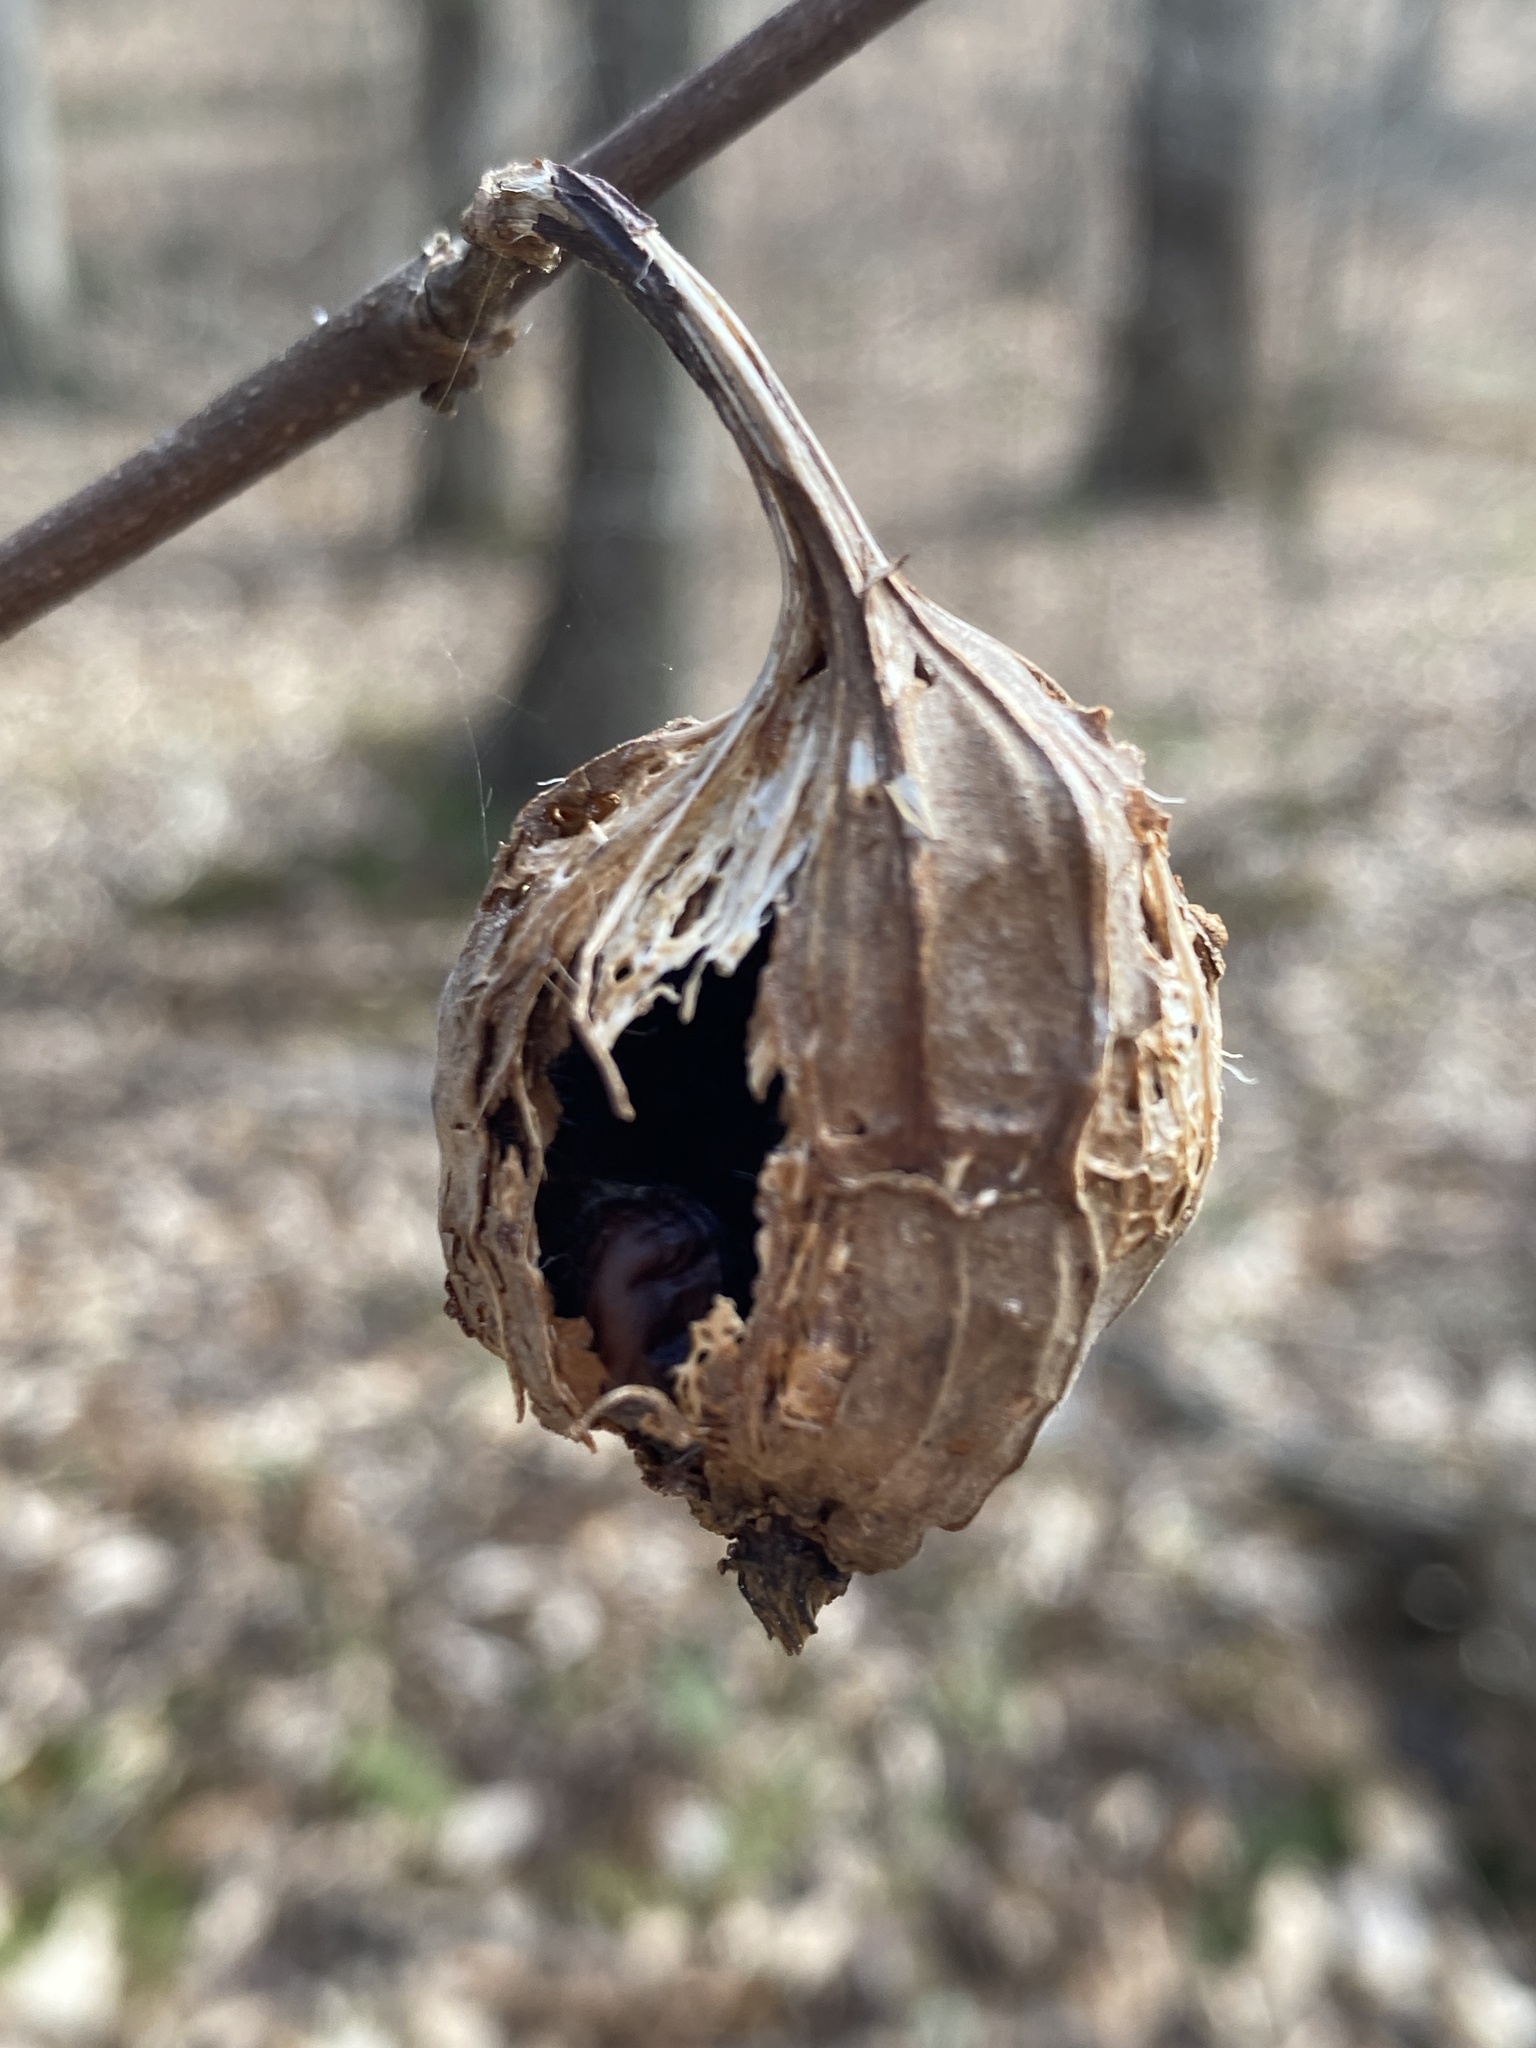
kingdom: Plantae
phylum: Tracheophyta
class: Magnoliopsida
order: Laurales
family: Calycanthaceae
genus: Calycanthus
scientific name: Calycanthus floridus
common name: Carolina-allspice
